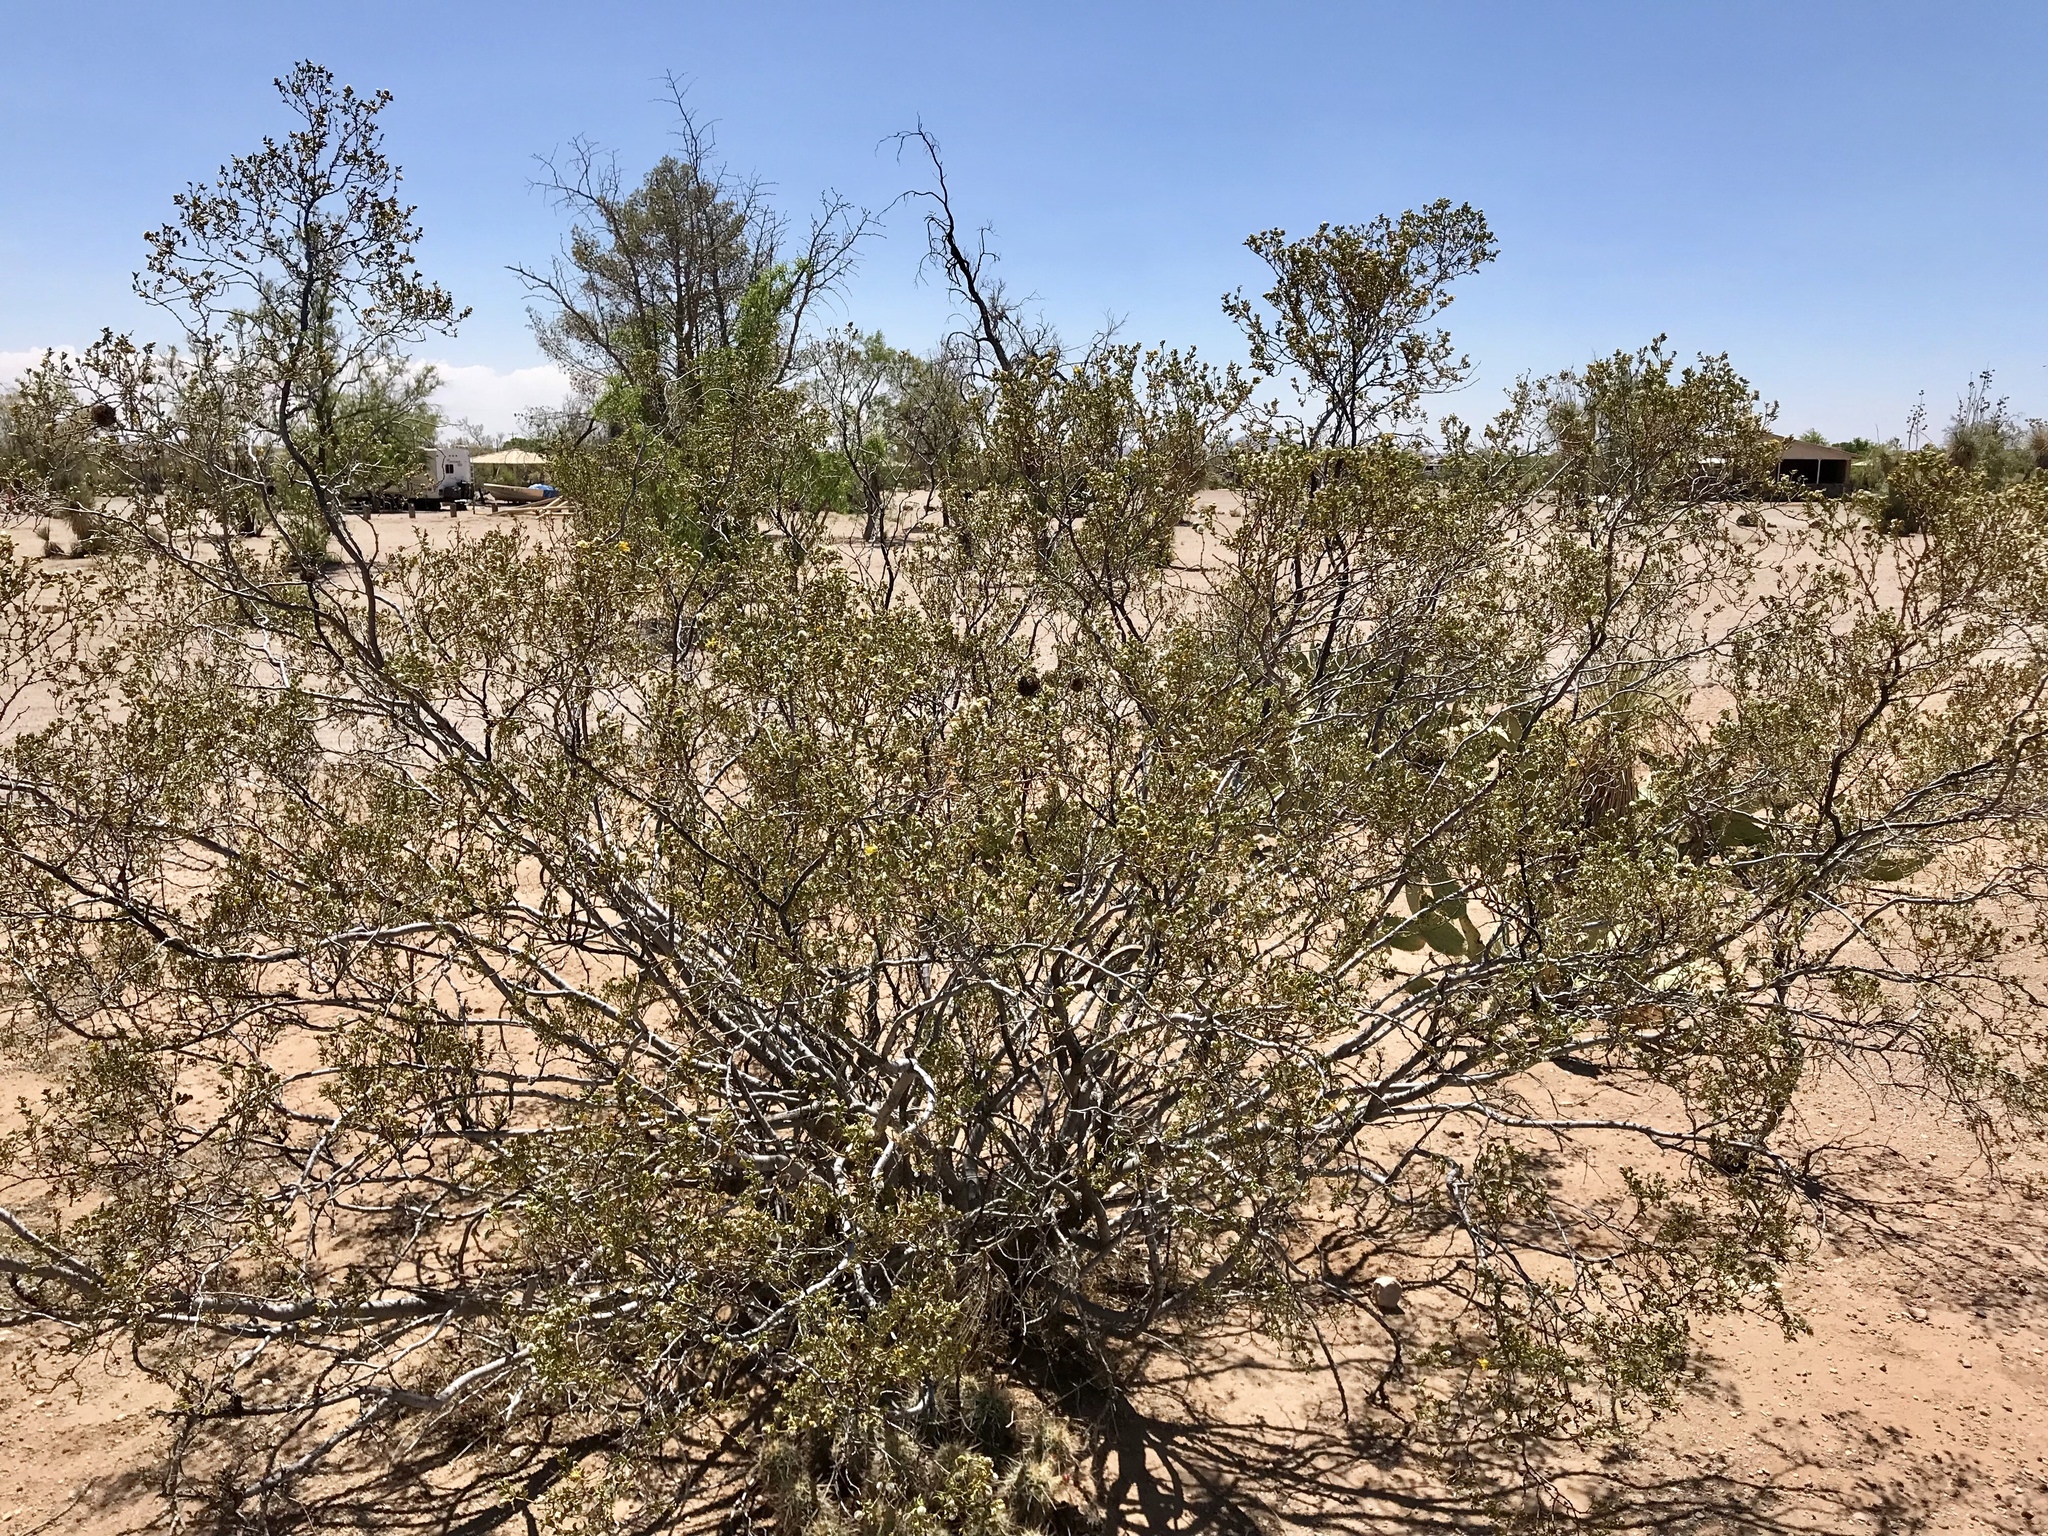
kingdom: Plantae
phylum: Tracheophyta
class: Magnoliopsida
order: Zygophyllales
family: Zygophyllaceae
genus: Larrea
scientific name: Larrea tridentata
